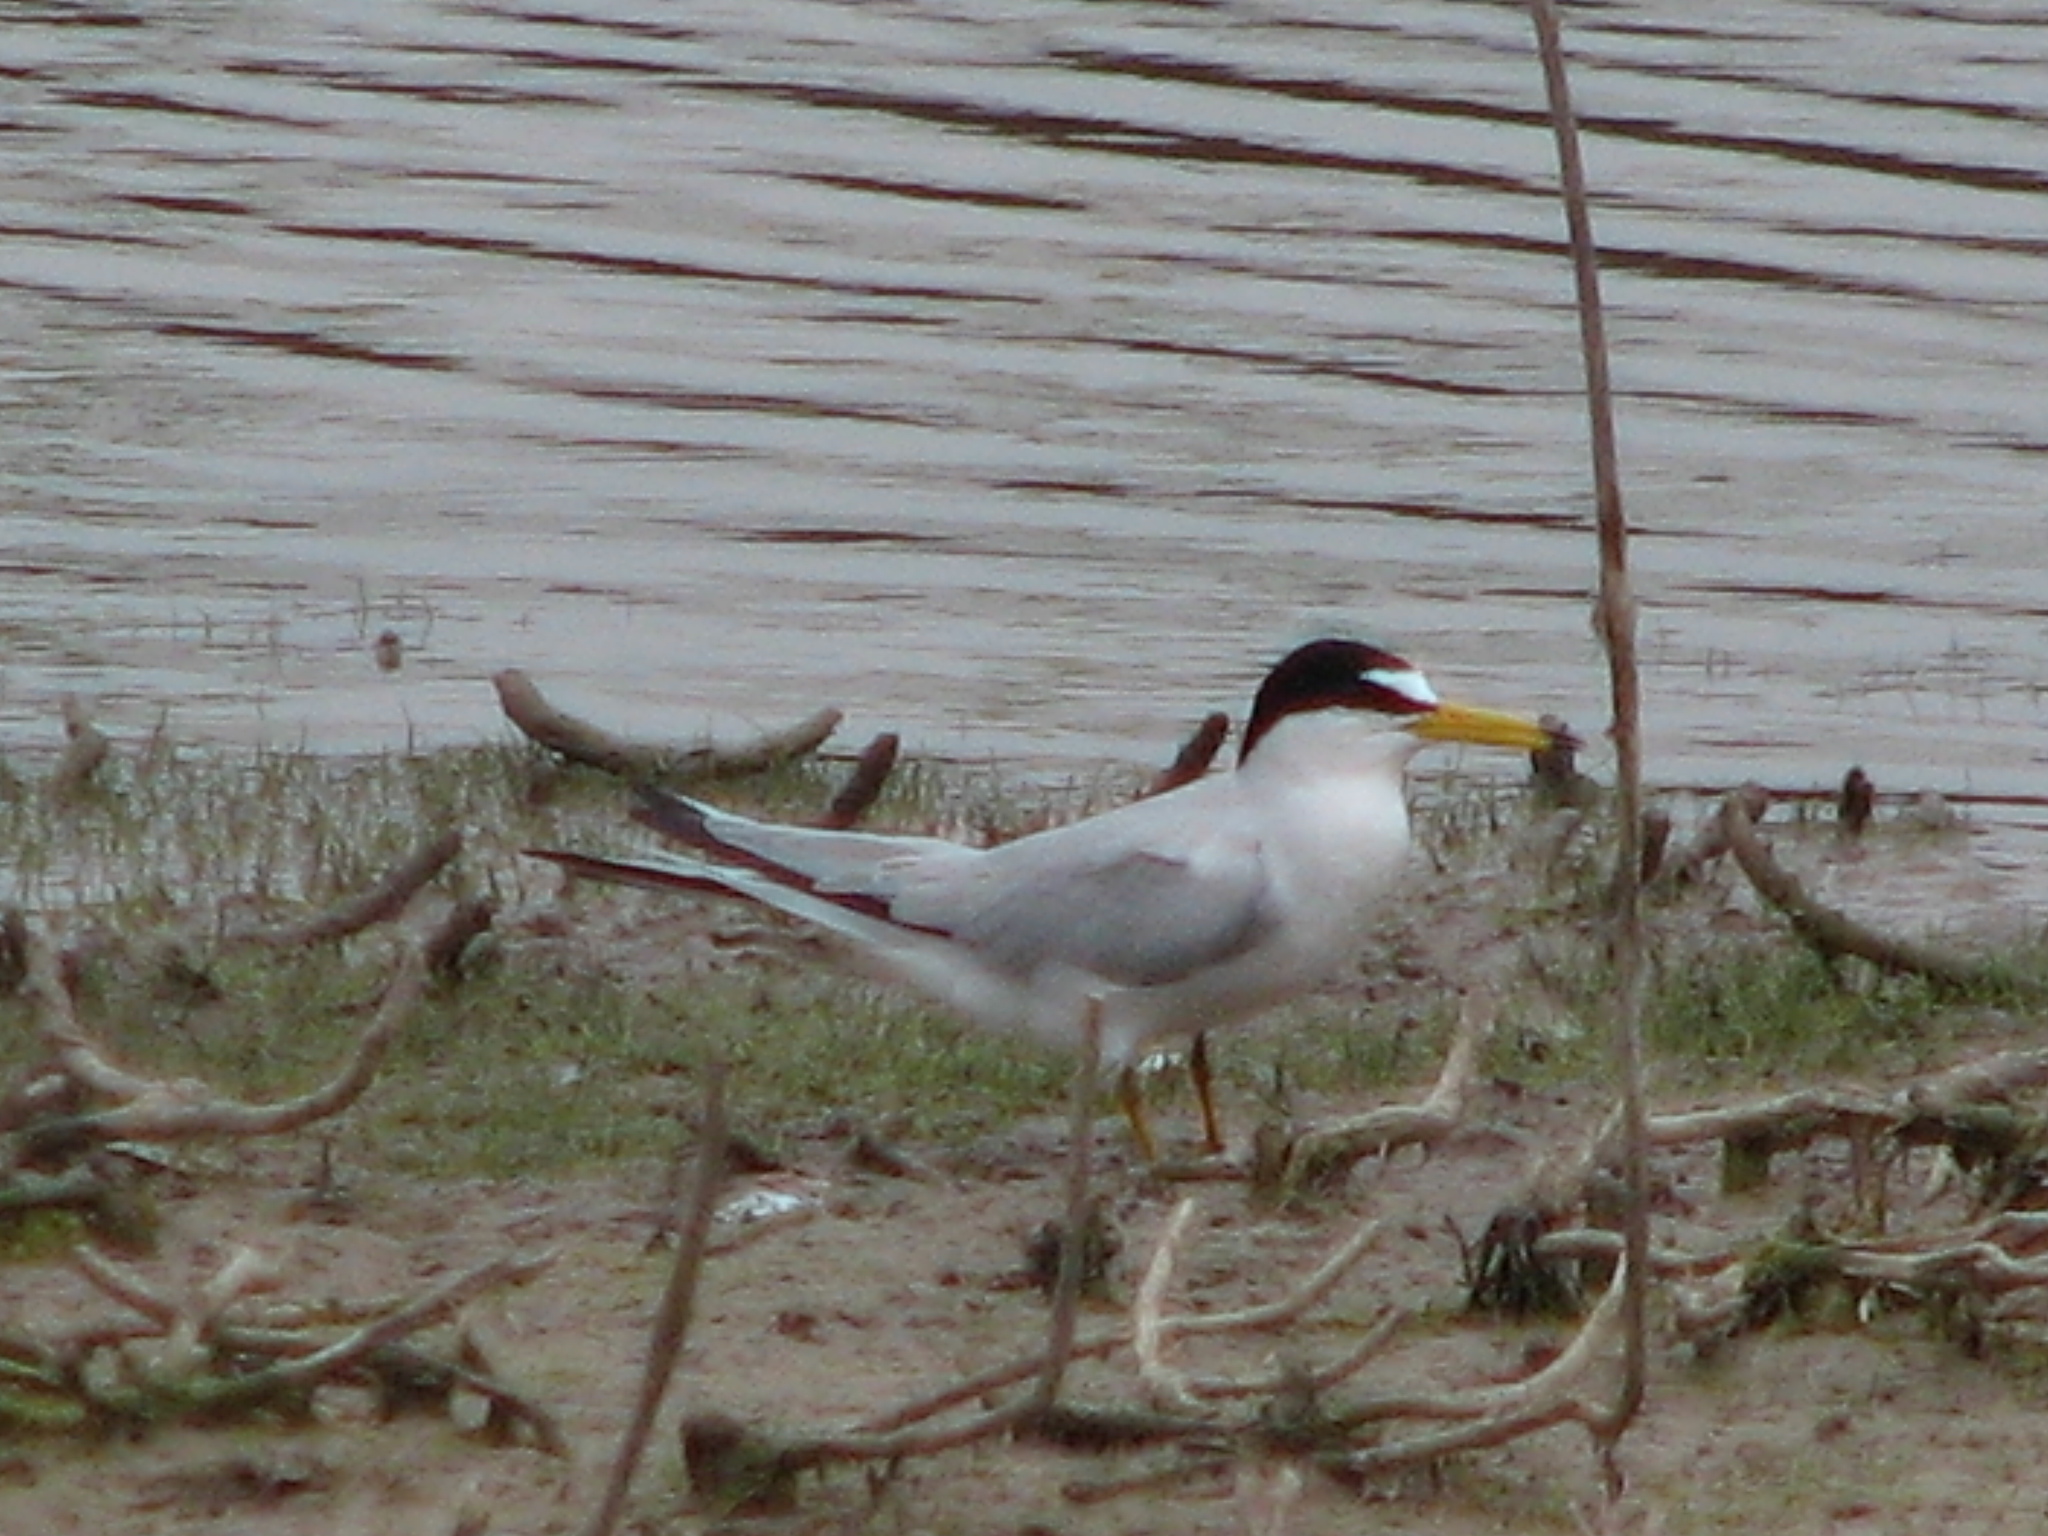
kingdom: Animalia
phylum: Chordata
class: Aves
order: Charadriiformes
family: Laridae
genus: Sternula
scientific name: Sternula antillarum
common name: Least tern
